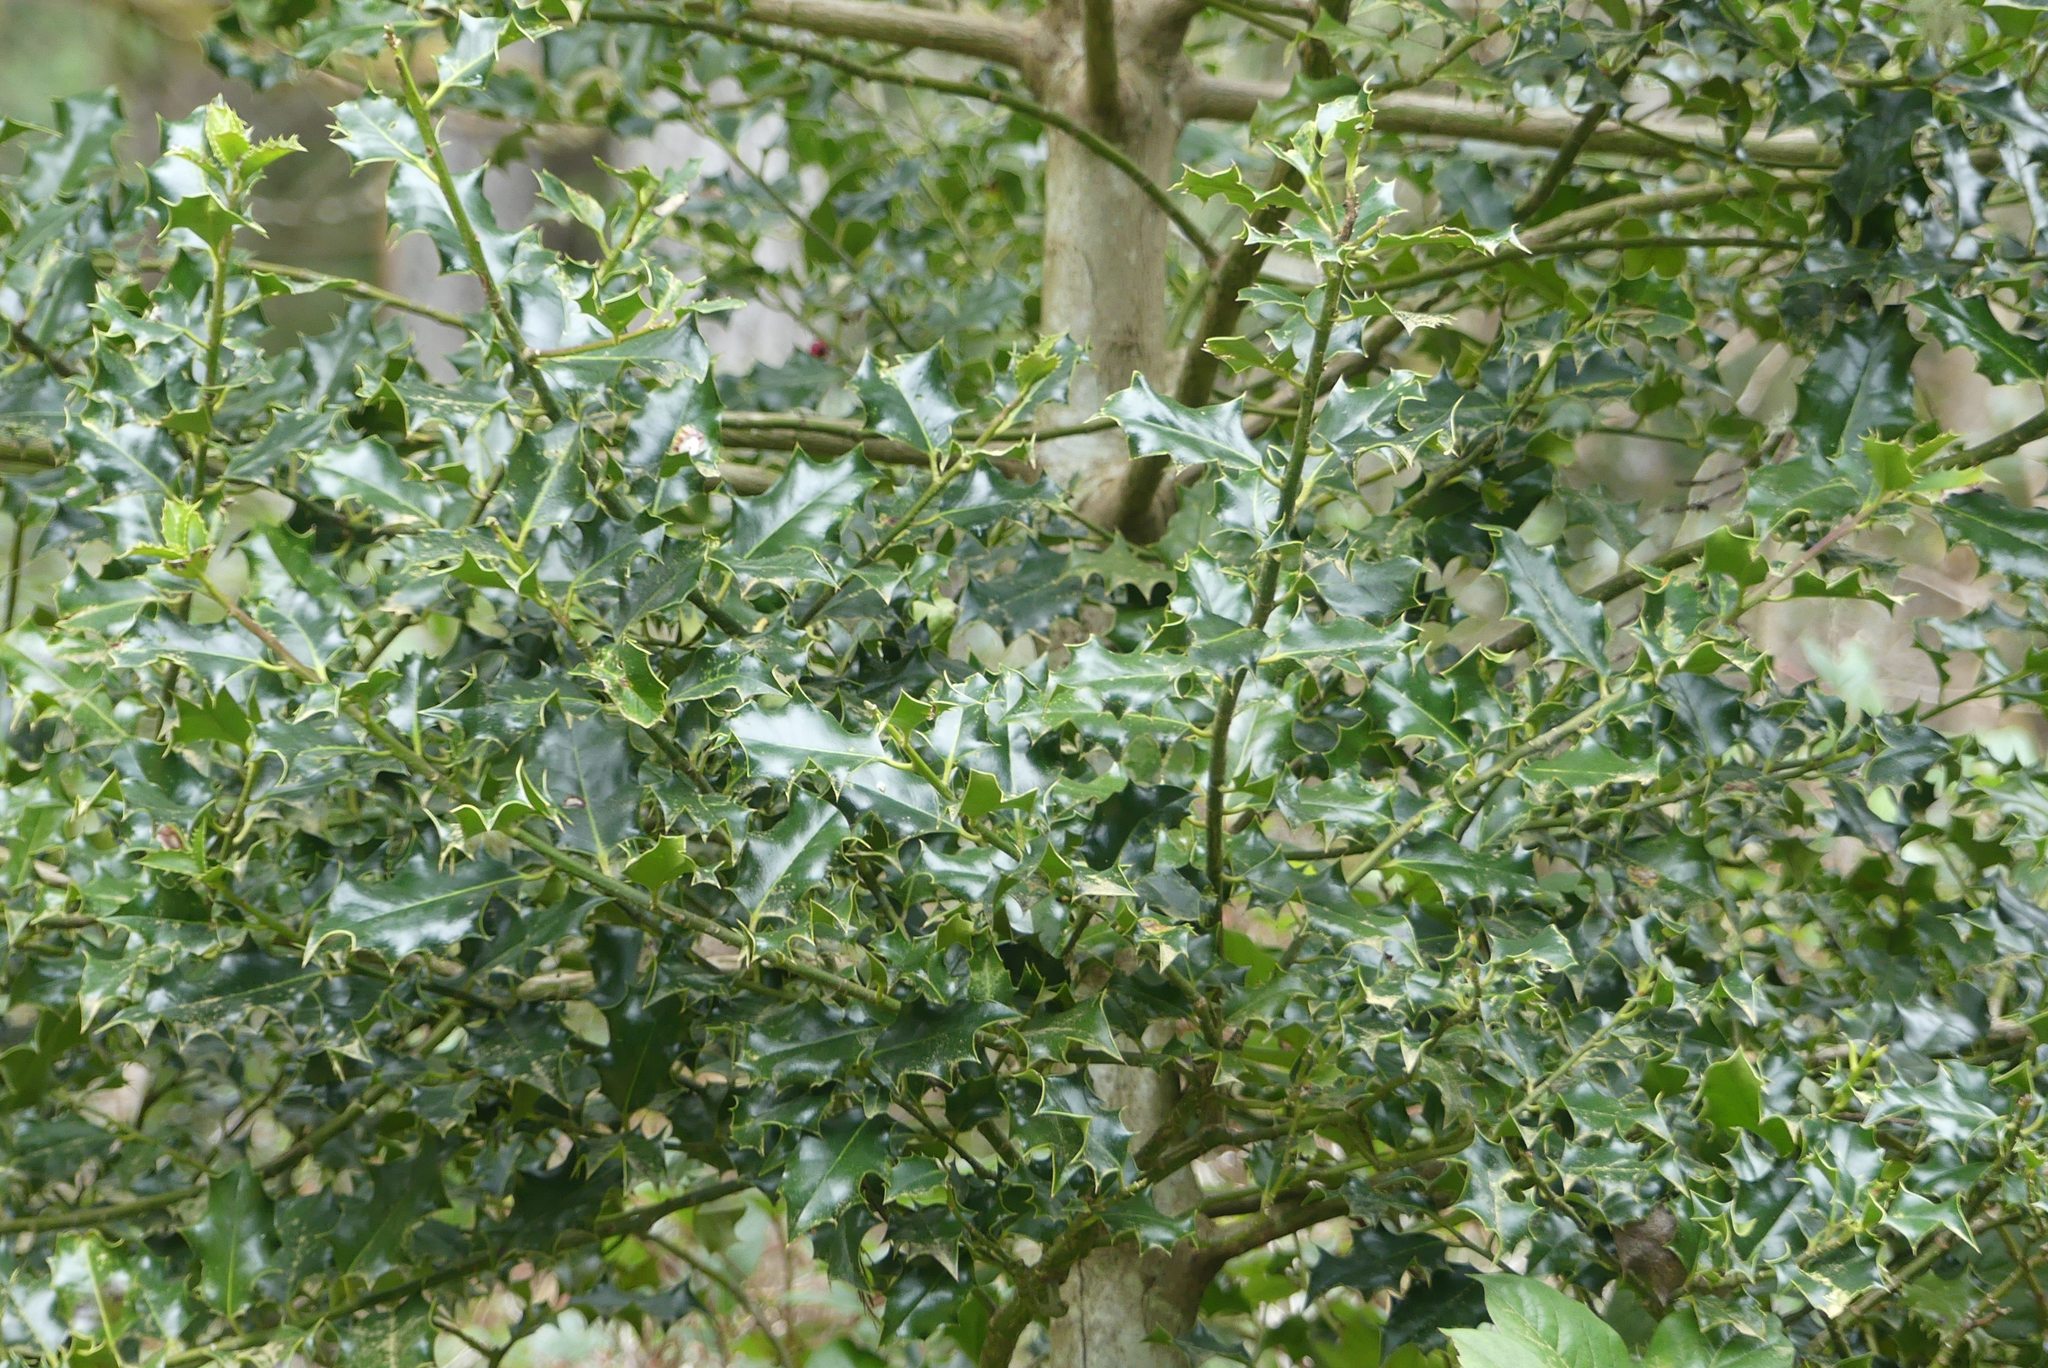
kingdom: Plantae
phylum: Tracheophyta
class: Magnoliopsida
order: Aquifoliales
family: Aquifoliaceae
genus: Ilex
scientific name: Ilex aquifolium
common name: English holly
